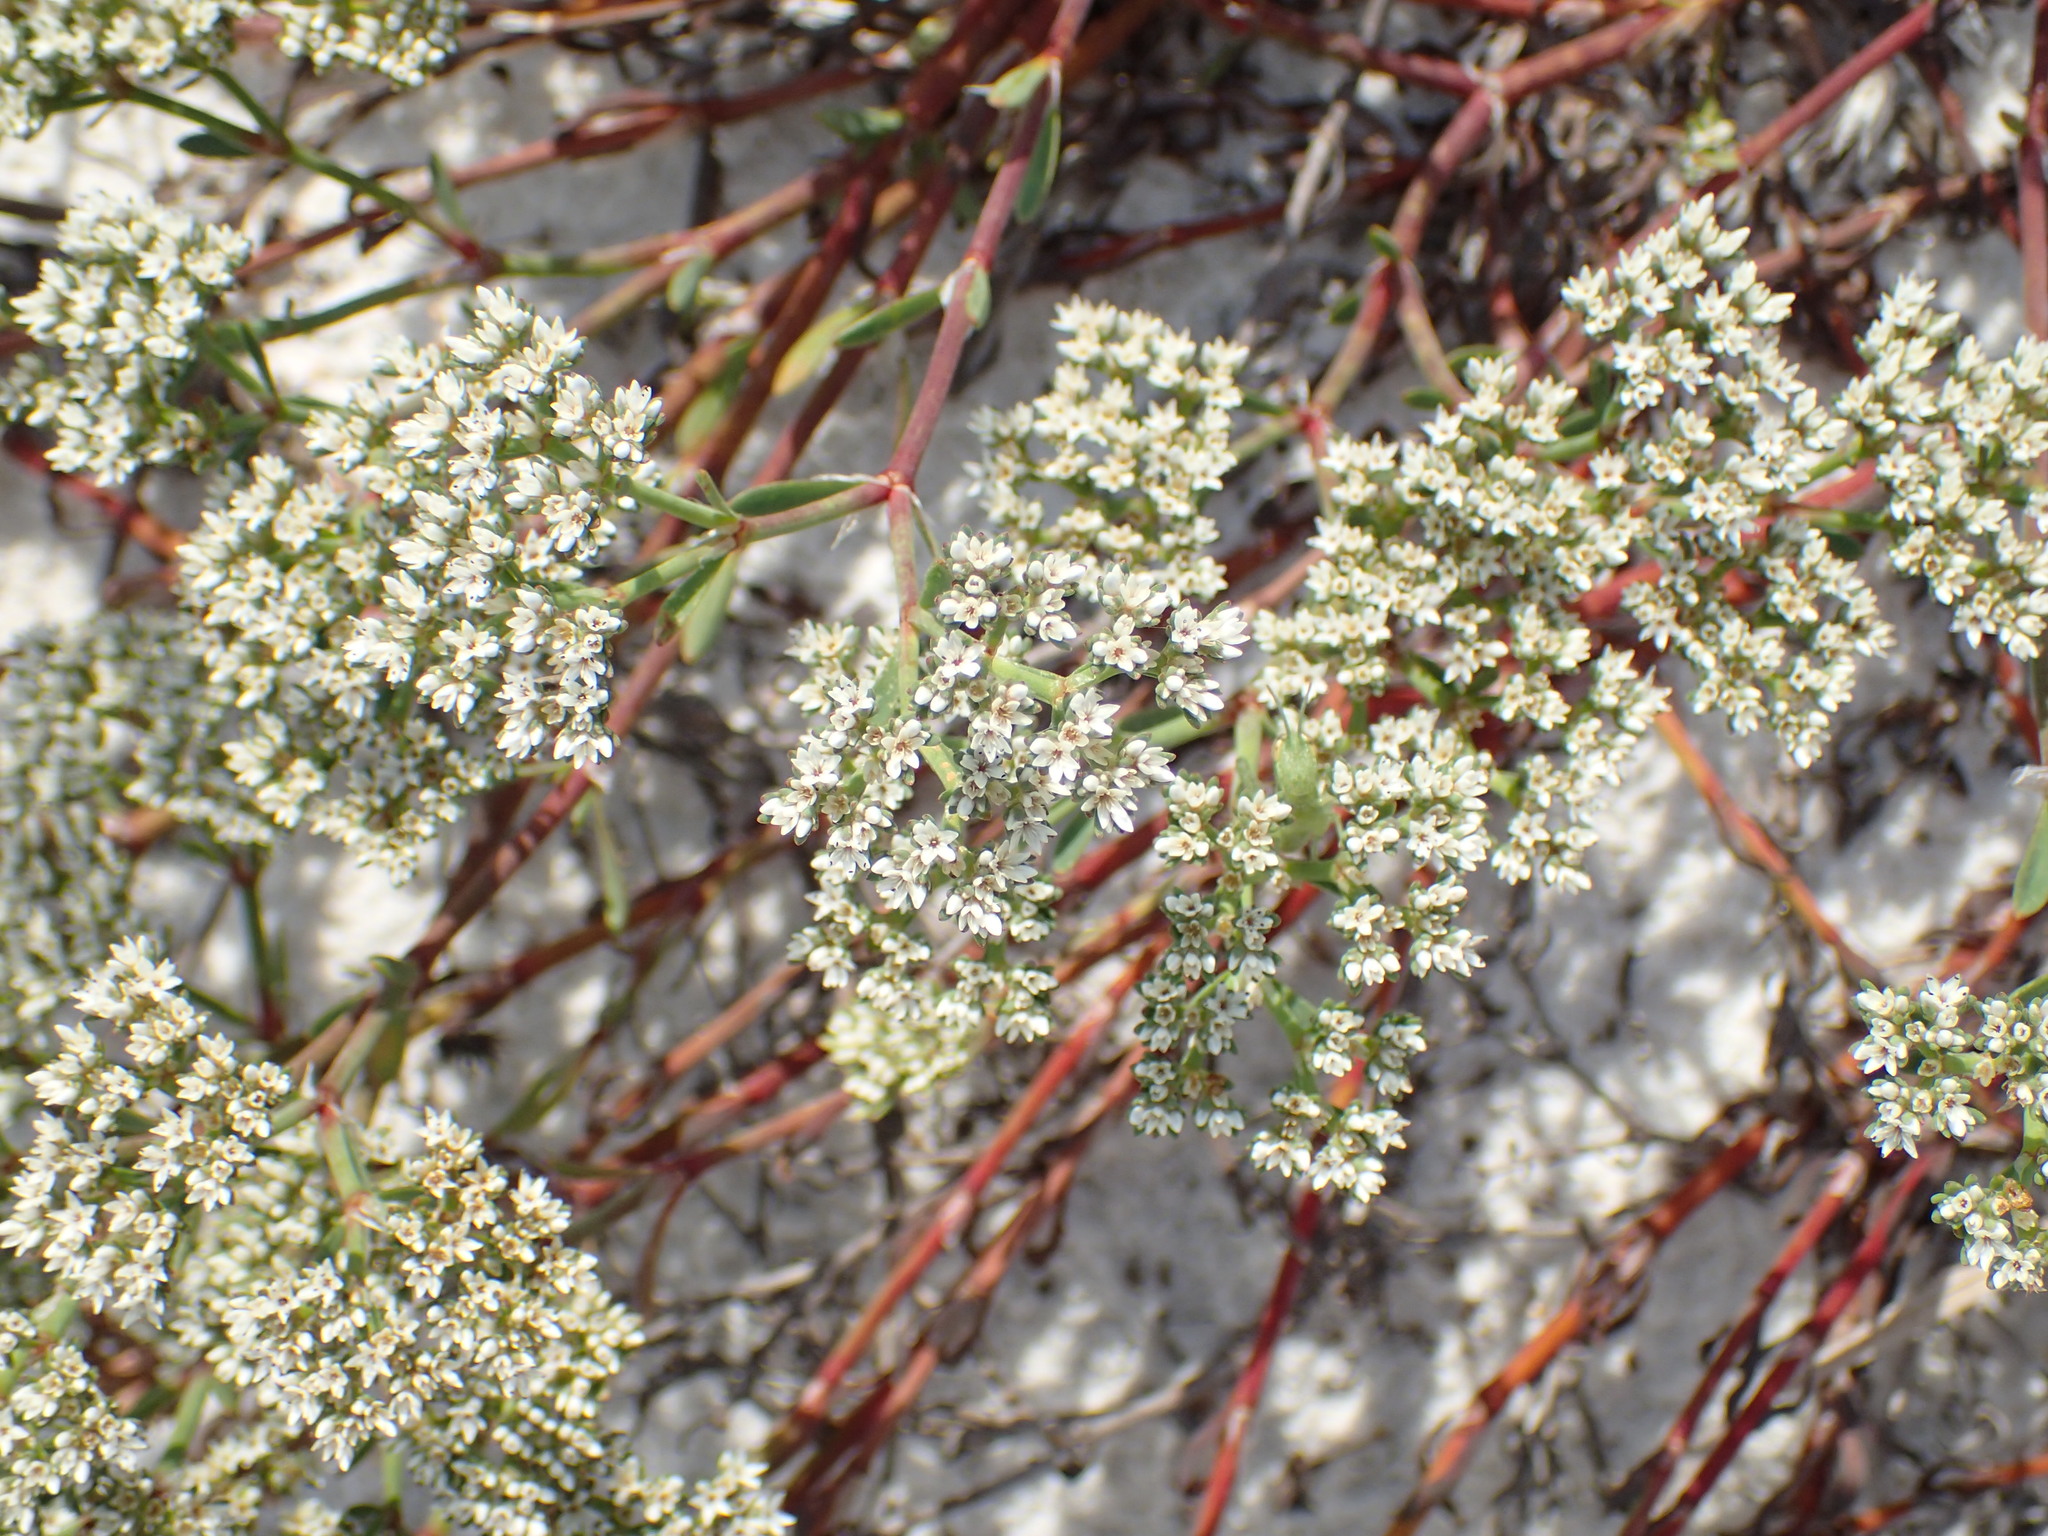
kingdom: Plantae
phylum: Tracheophyta
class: Magnoliopsida
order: Caryophyllales
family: Caryophyllaceae
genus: Paronychia
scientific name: Paronychia erecta
